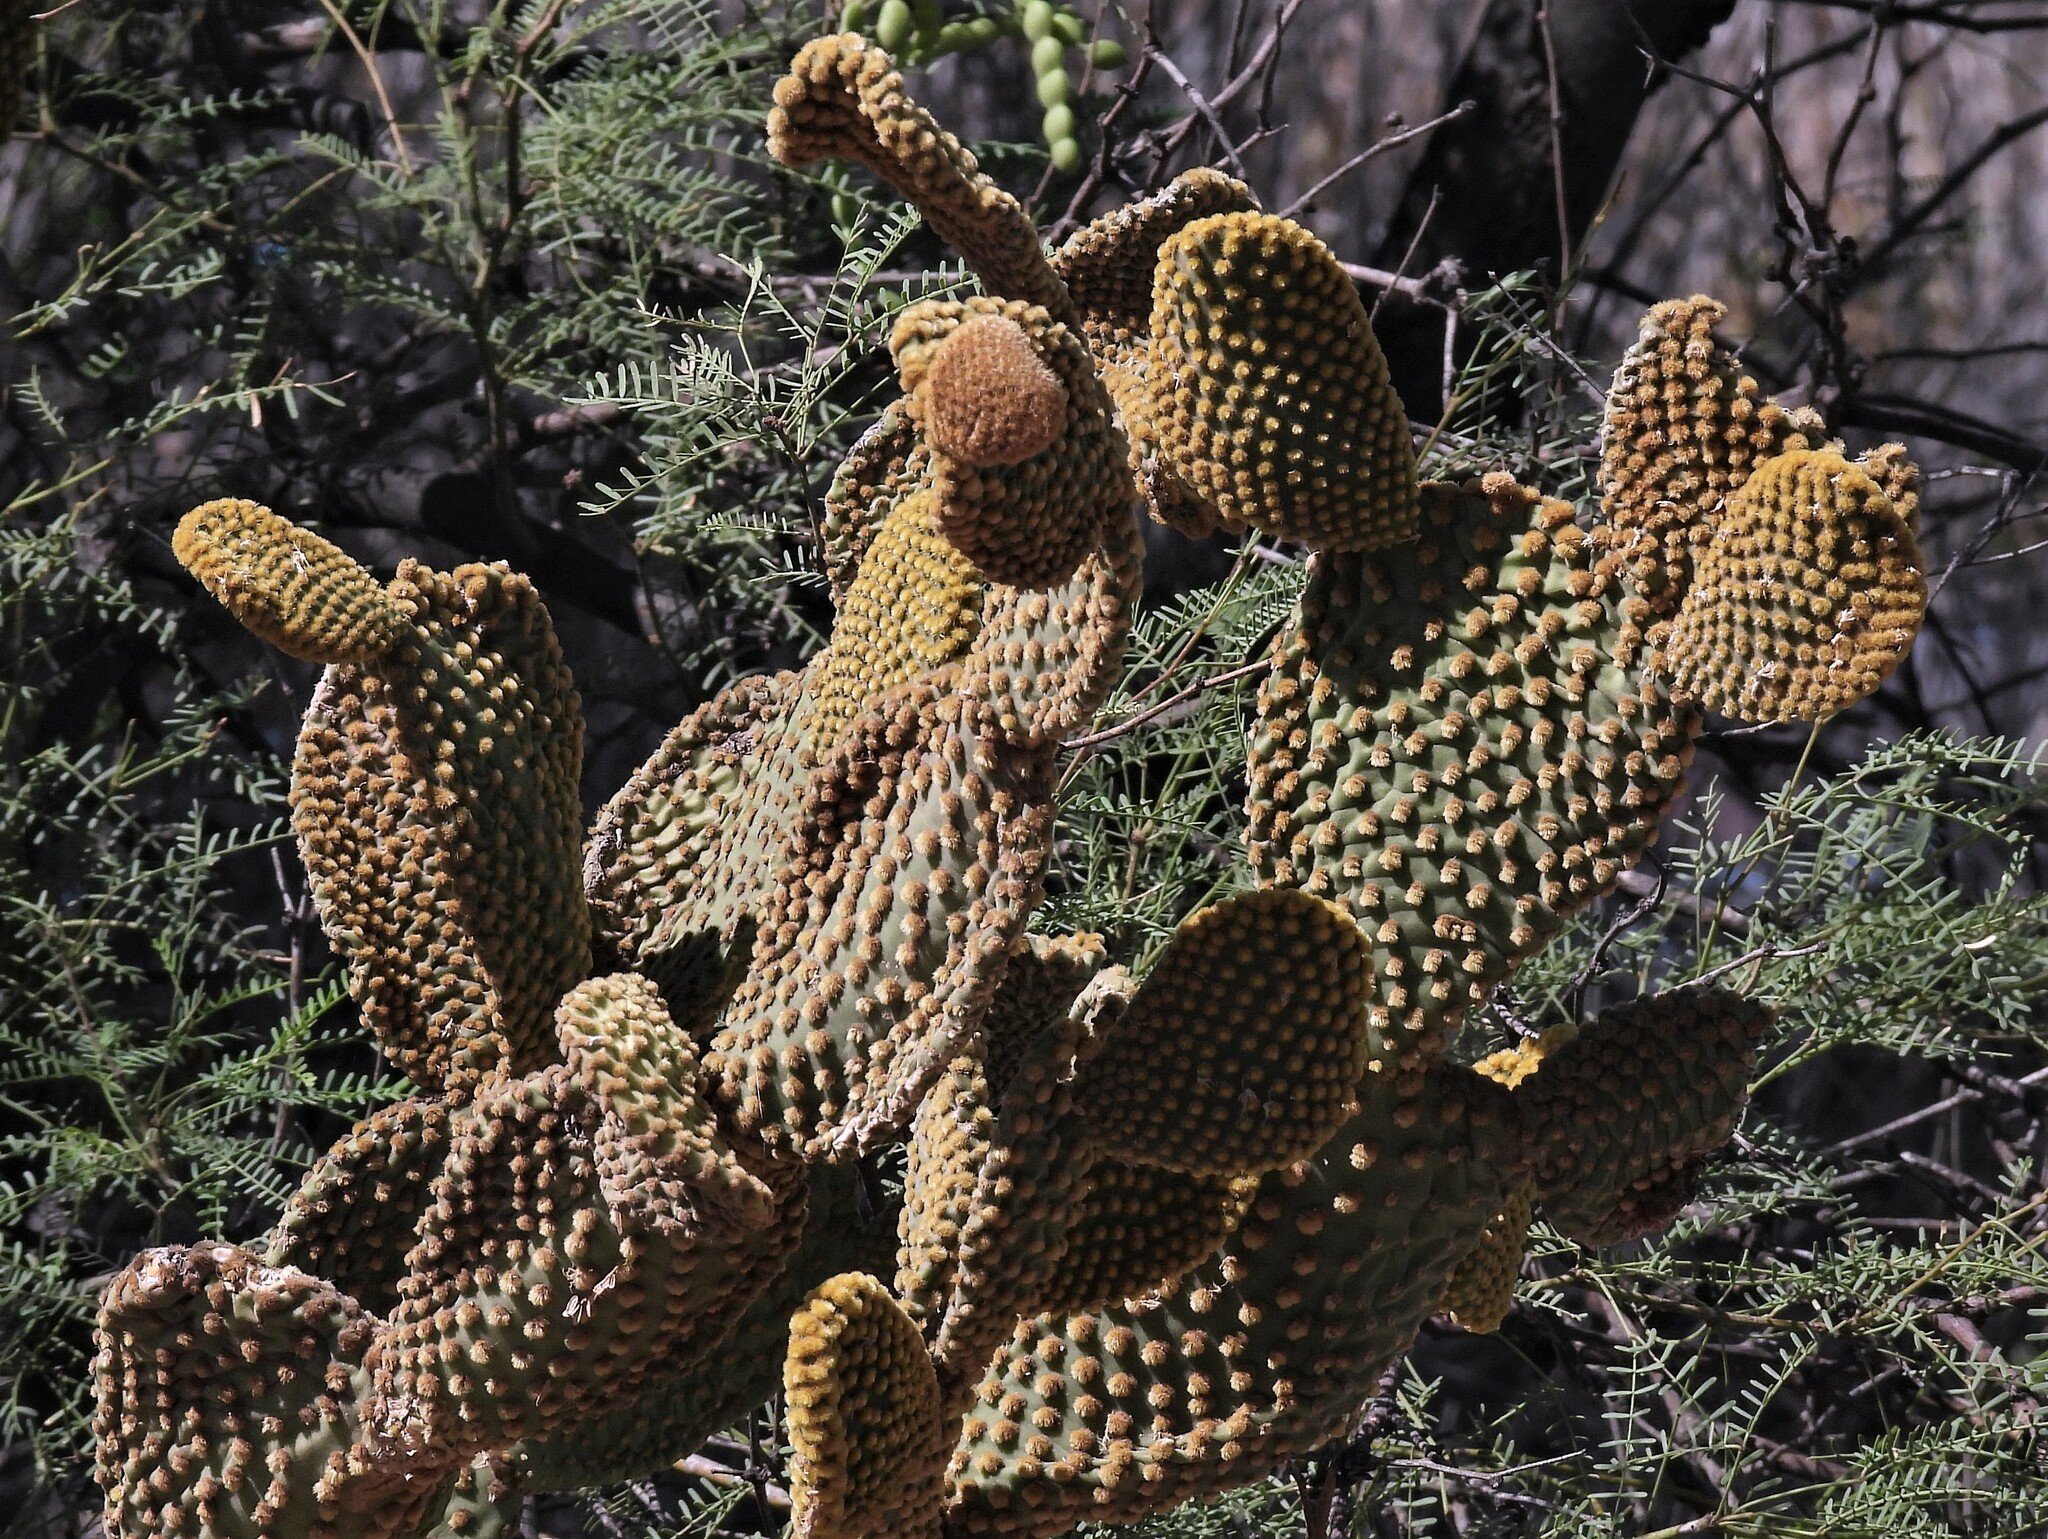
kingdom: Plantae
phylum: Tracheophyta
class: Magnoliopsida
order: Caryophyllales
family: Cactaceae
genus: Opuntia
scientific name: Opuntia microdasys
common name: Angel's-wings
